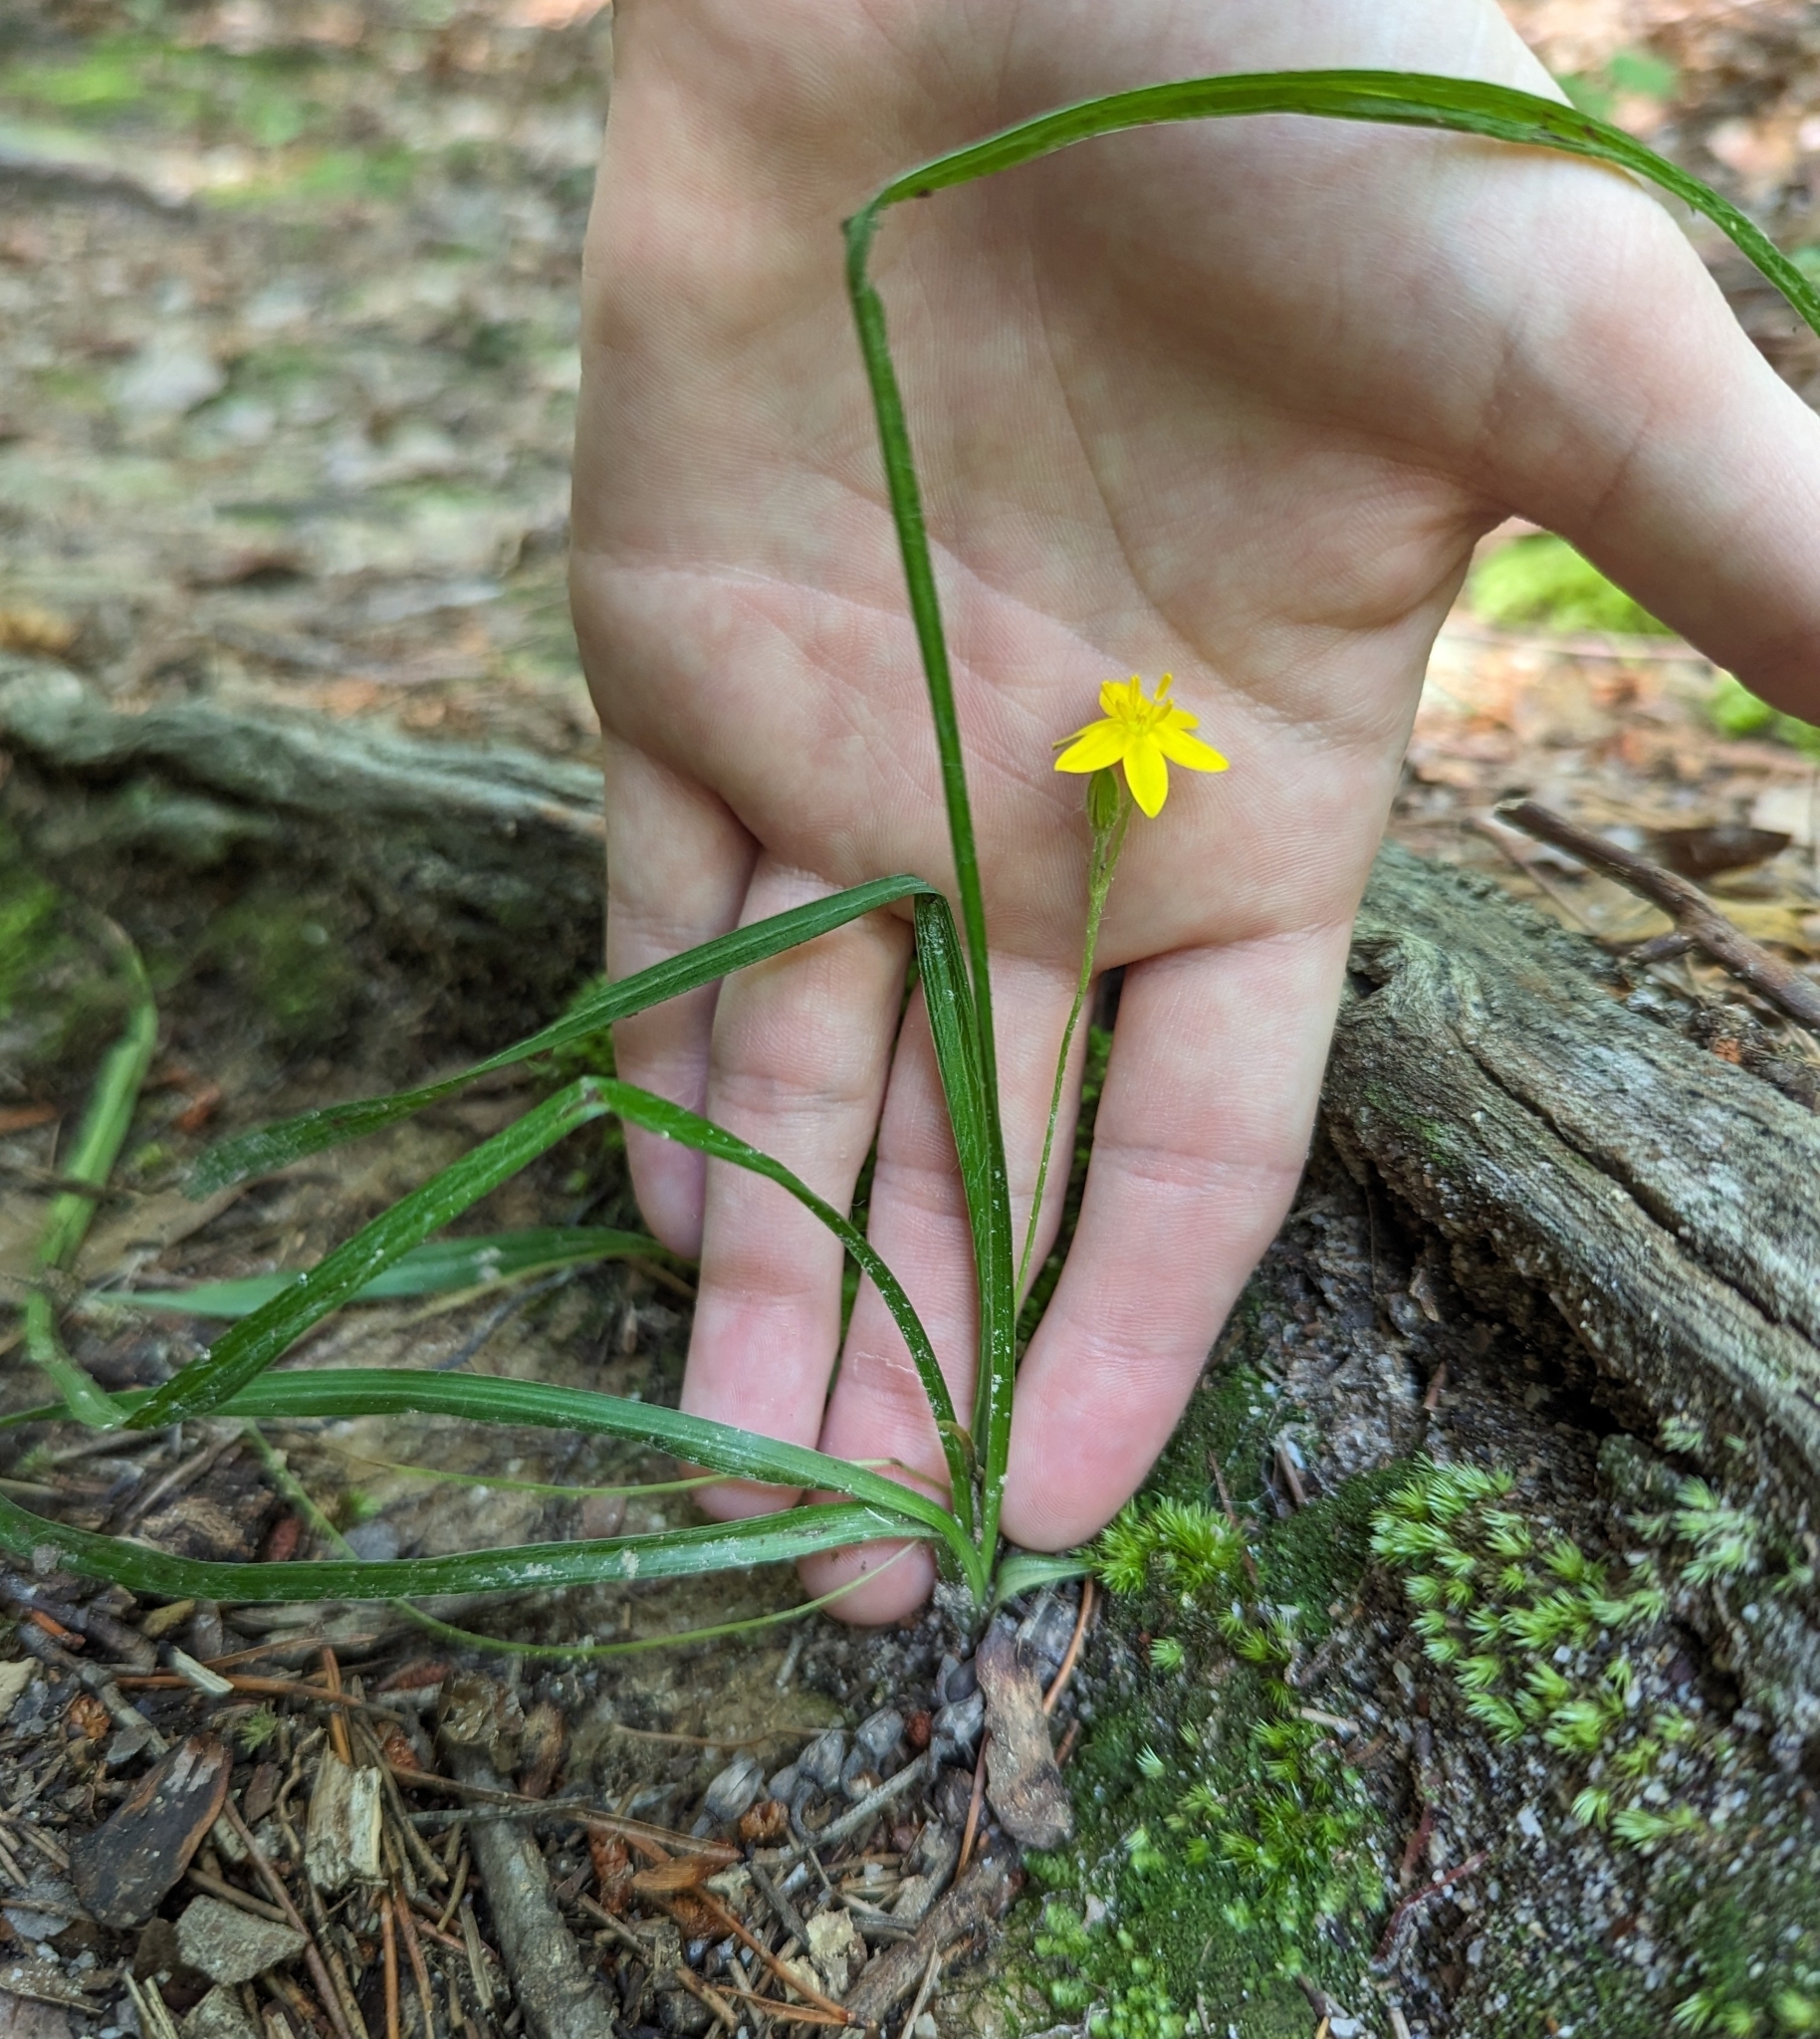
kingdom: Plantae
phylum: Tracheophyta
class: Liliopsida
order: Asparagales
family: Hypoxidaceae
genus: Hypoxis
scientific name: Hypoxis hirsuta
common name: Common goldstar
